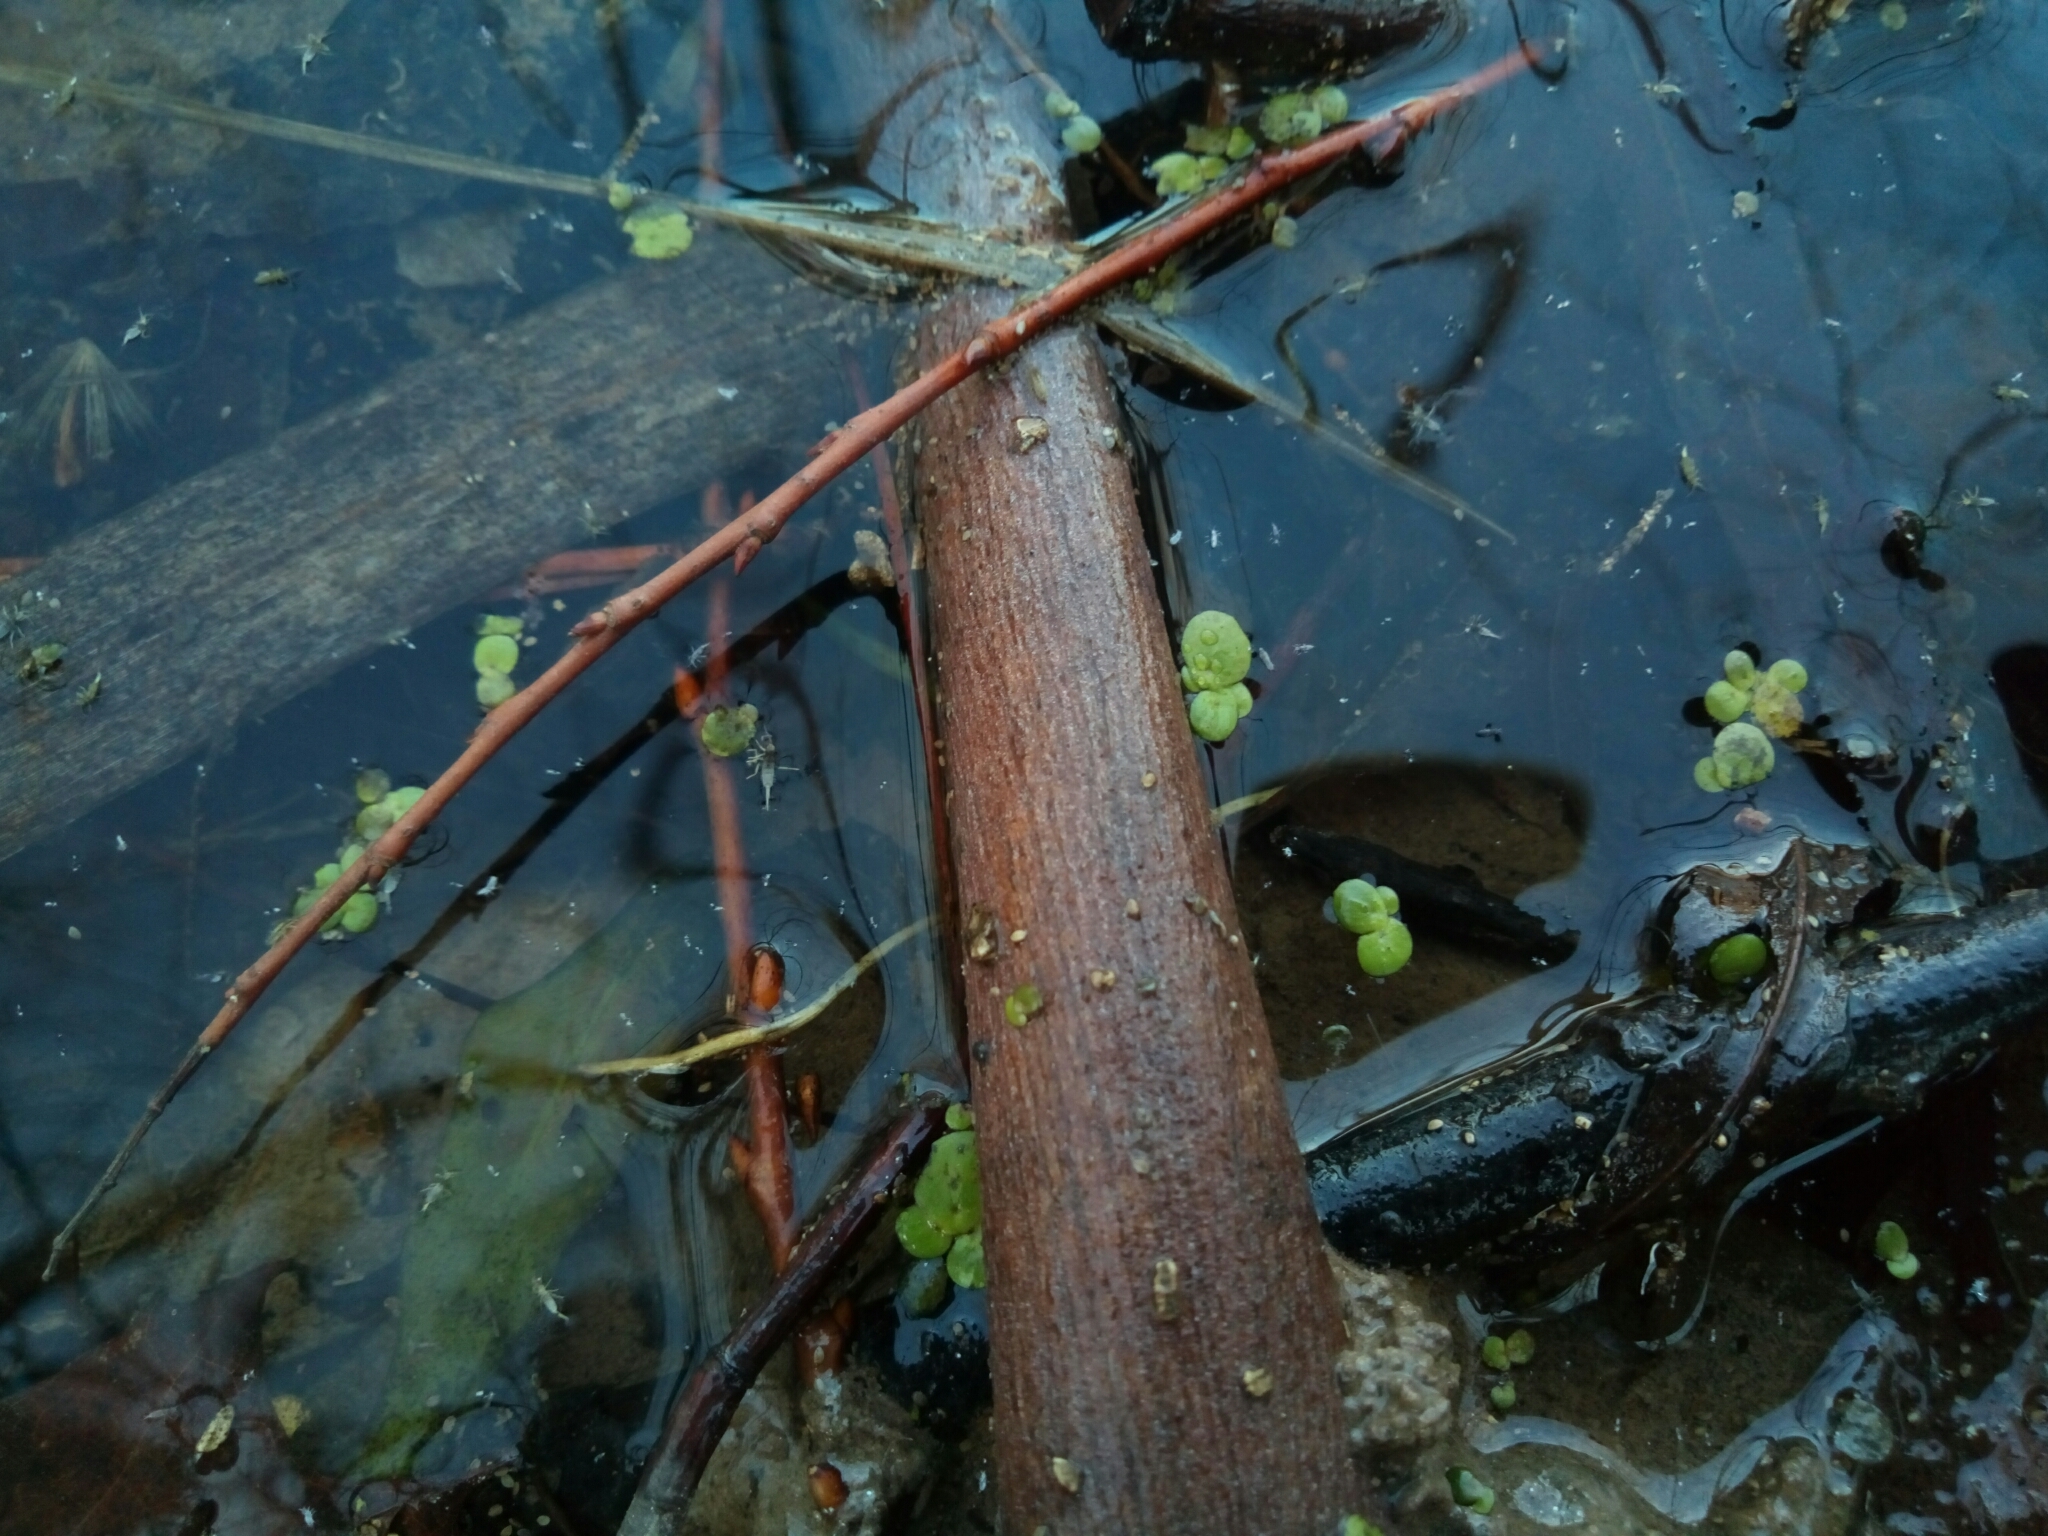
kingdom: Plantae
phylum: Tracheophyta
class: Liliopsida
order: Alismatales
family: Araceae
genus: Spirodela
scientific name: Spirodela polyrhiza
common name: Great duckweed
